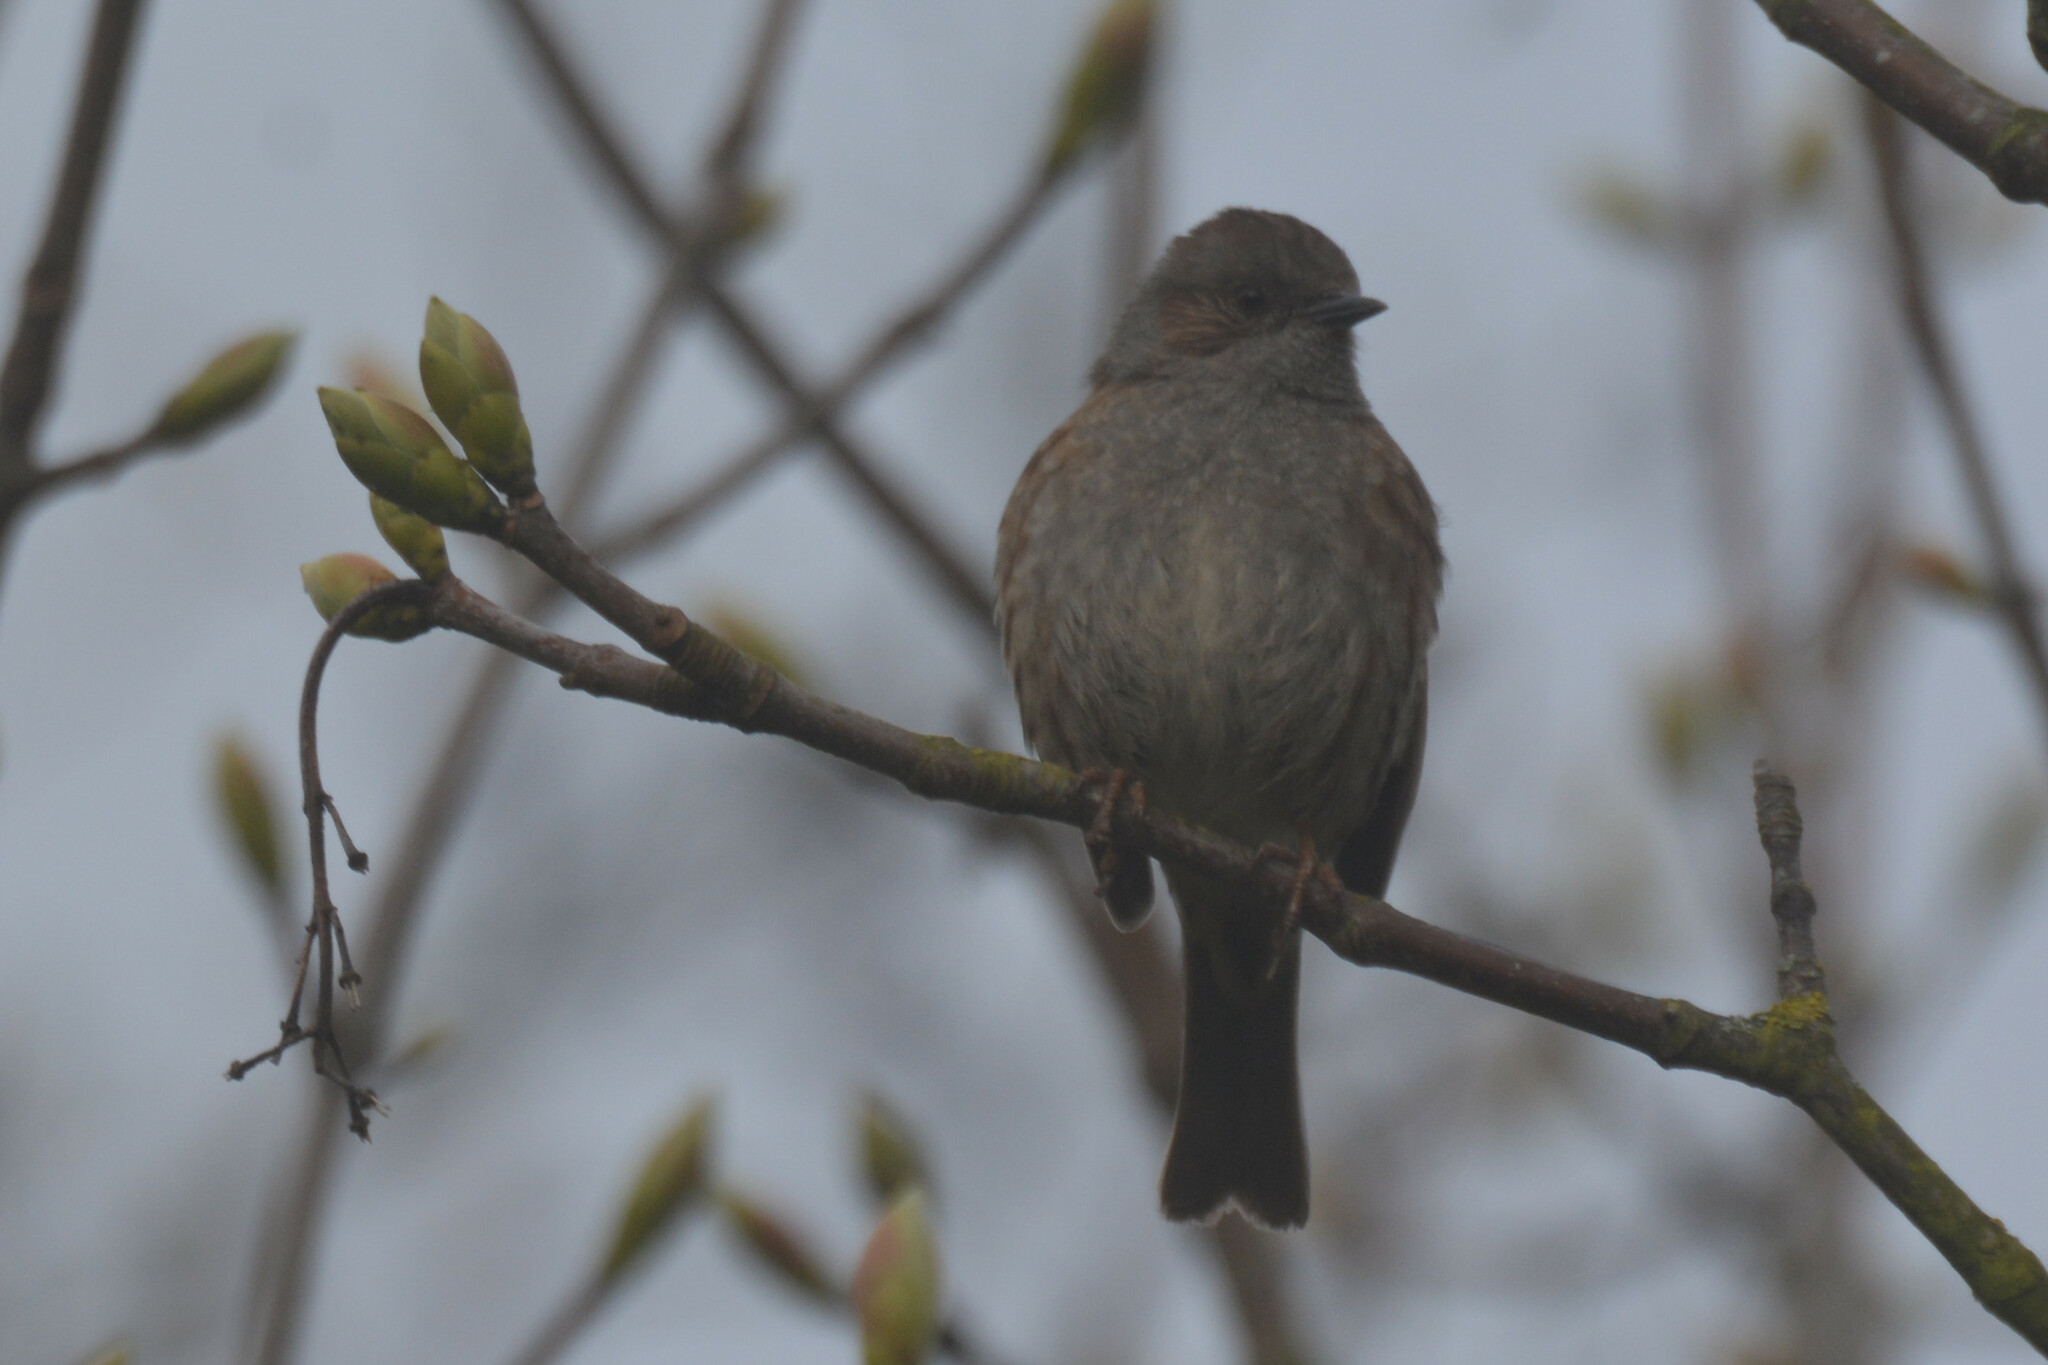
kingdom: Animalia
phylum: Chordata
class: Aves
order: Passeriformes
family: Prunellidae
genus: Prunella
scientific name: Prunella modularis
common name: Dunnock
